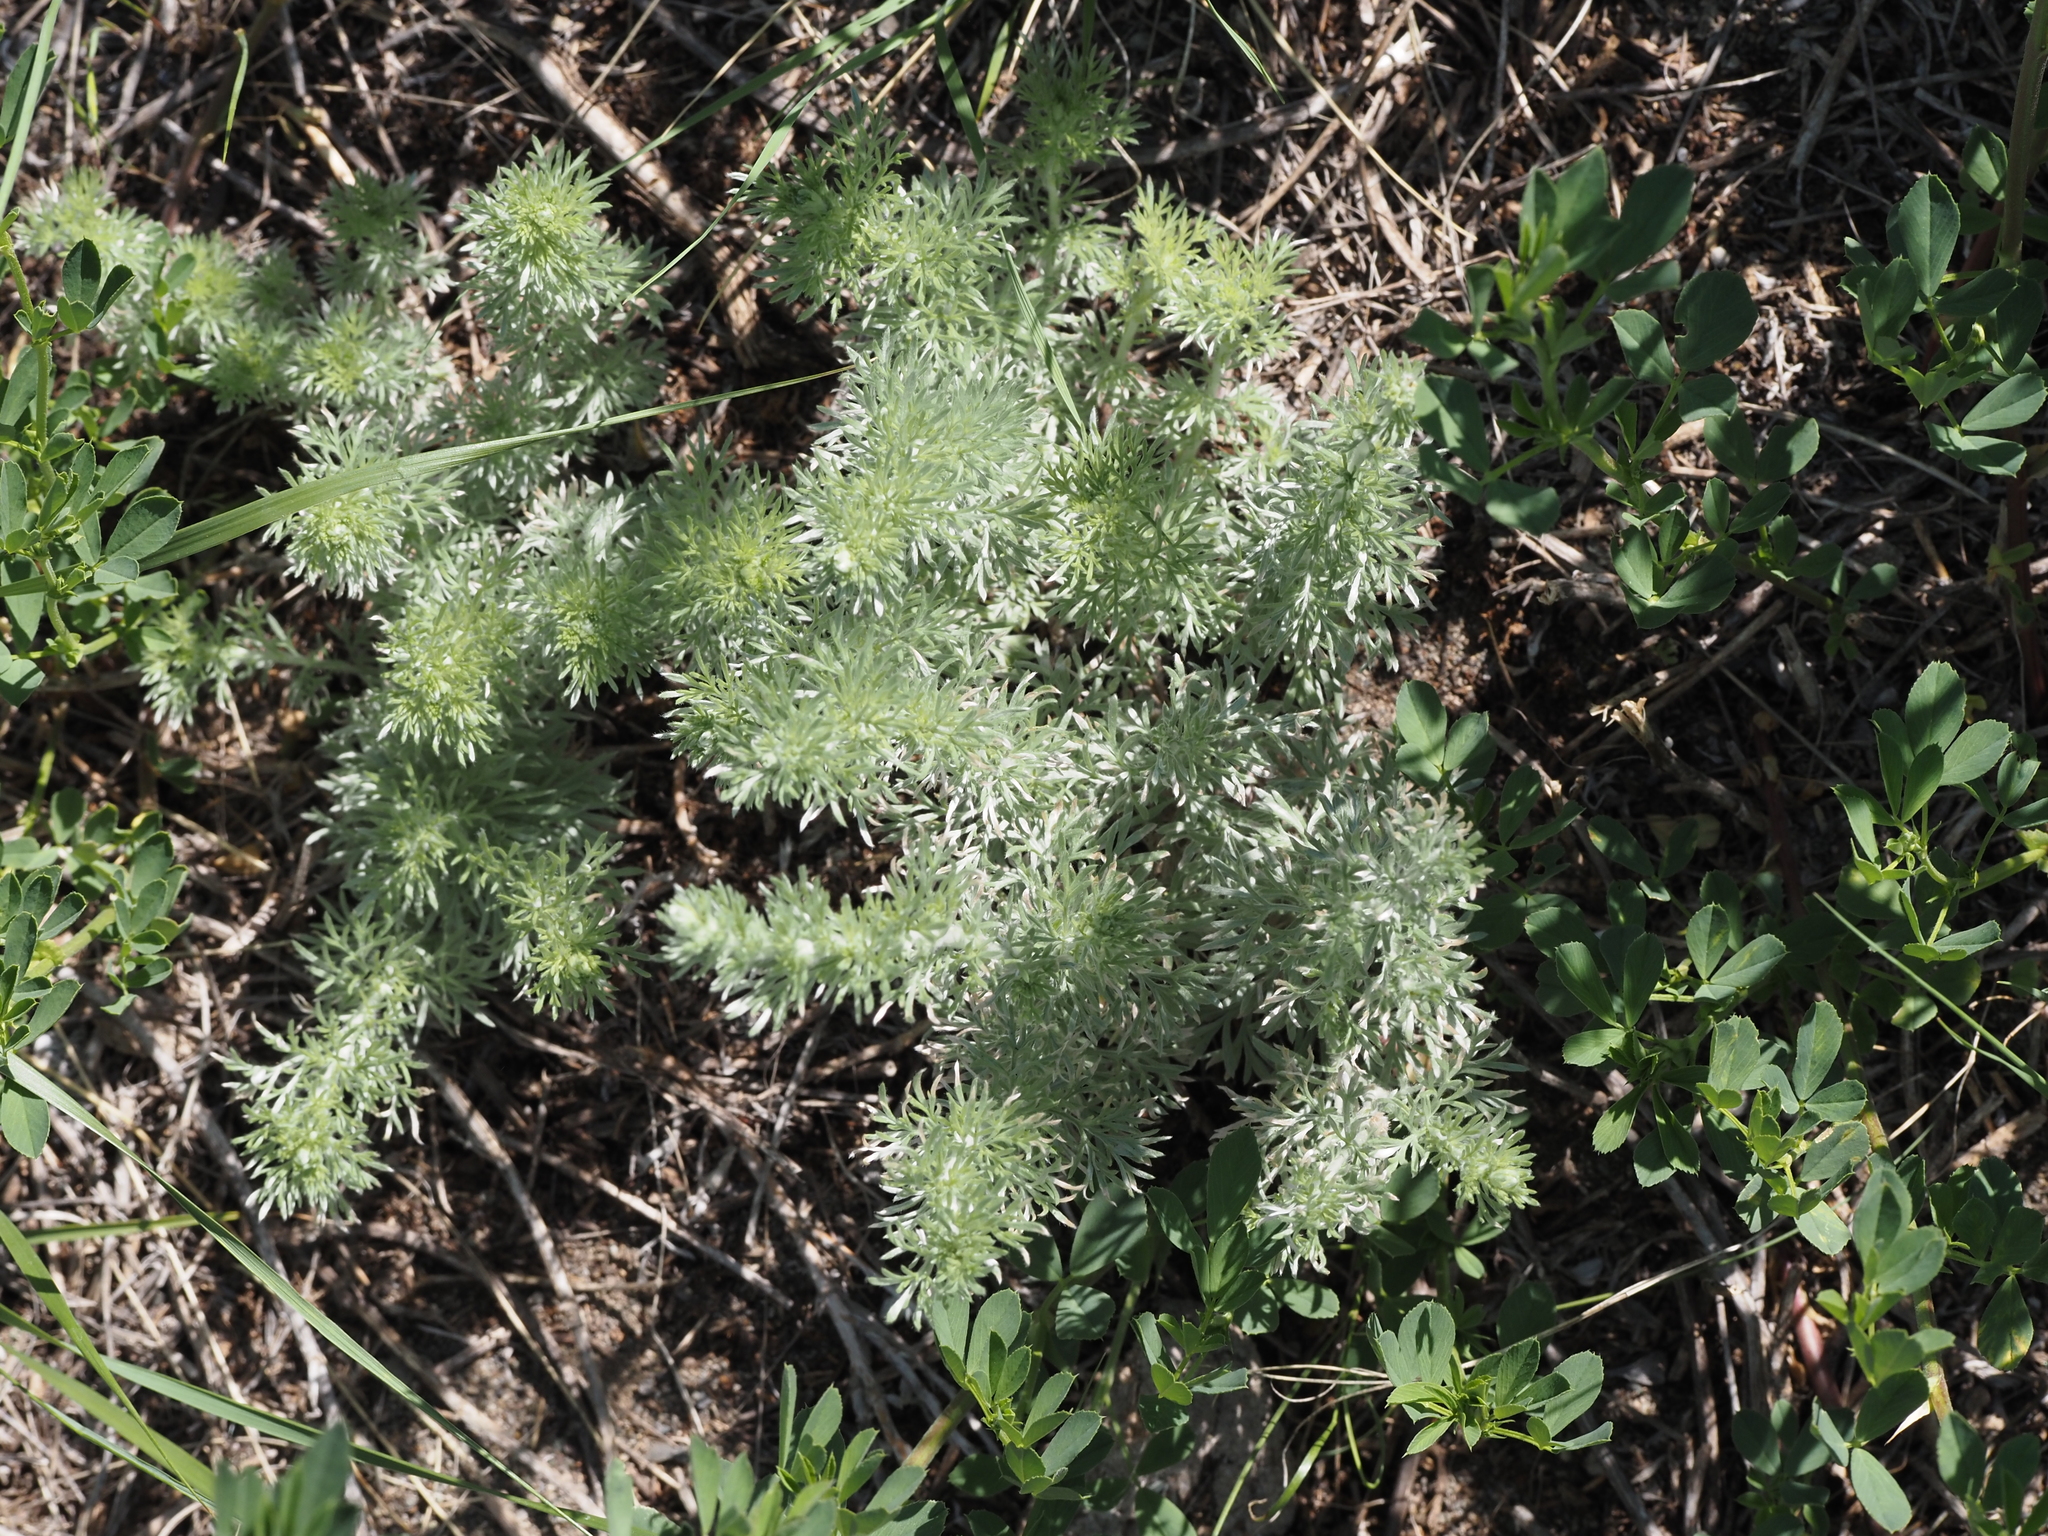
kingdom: Plantae
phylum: Tracheophyta
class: Magnoliopsida
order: Asterales
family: Asteraceae
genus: Artemisia
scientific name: Artemisia frigida
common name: Prairie sagewort
